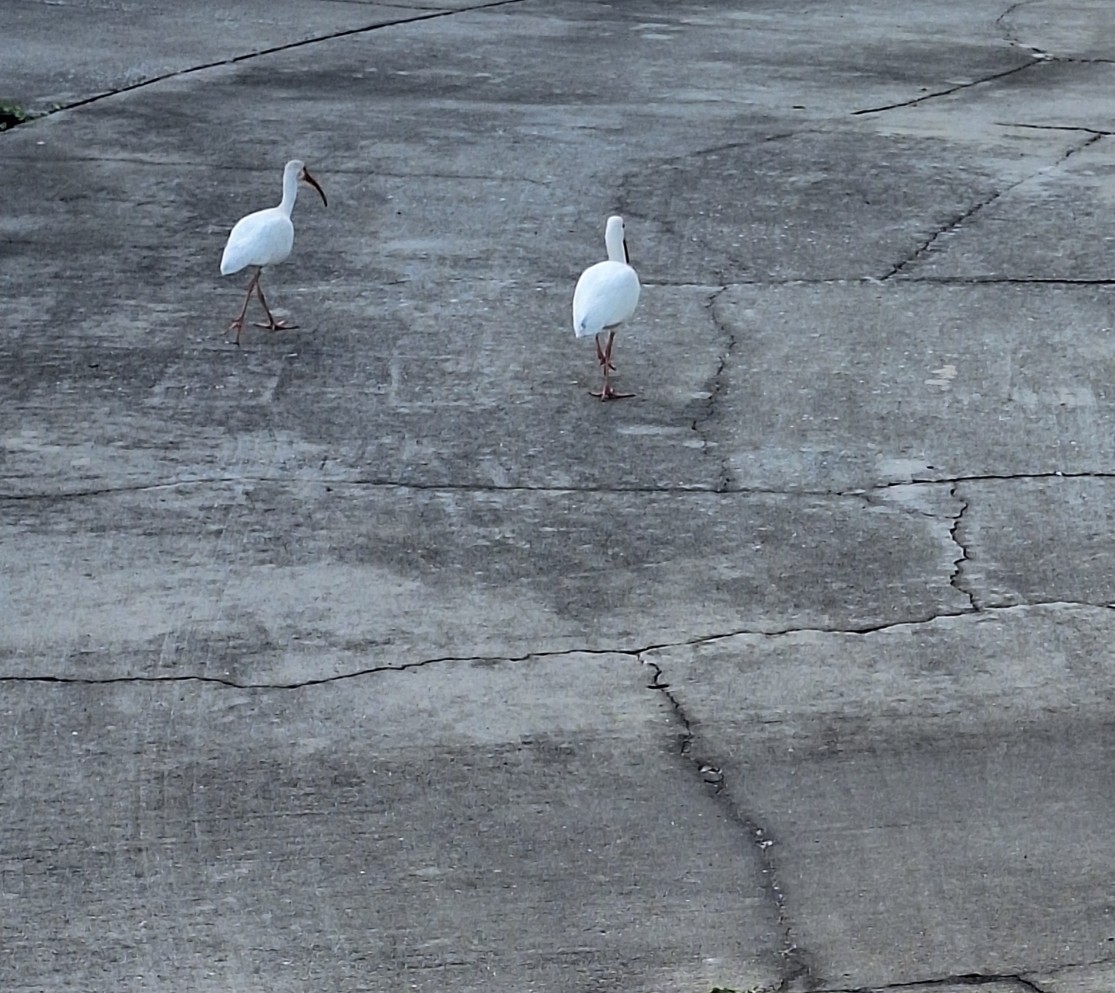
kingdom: Animalia
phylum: Chordata
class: Aves
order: Pelecaniformes
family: Threskiornithidae
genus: Eudocimus
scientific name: Eudocimus albus
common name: White ibis
